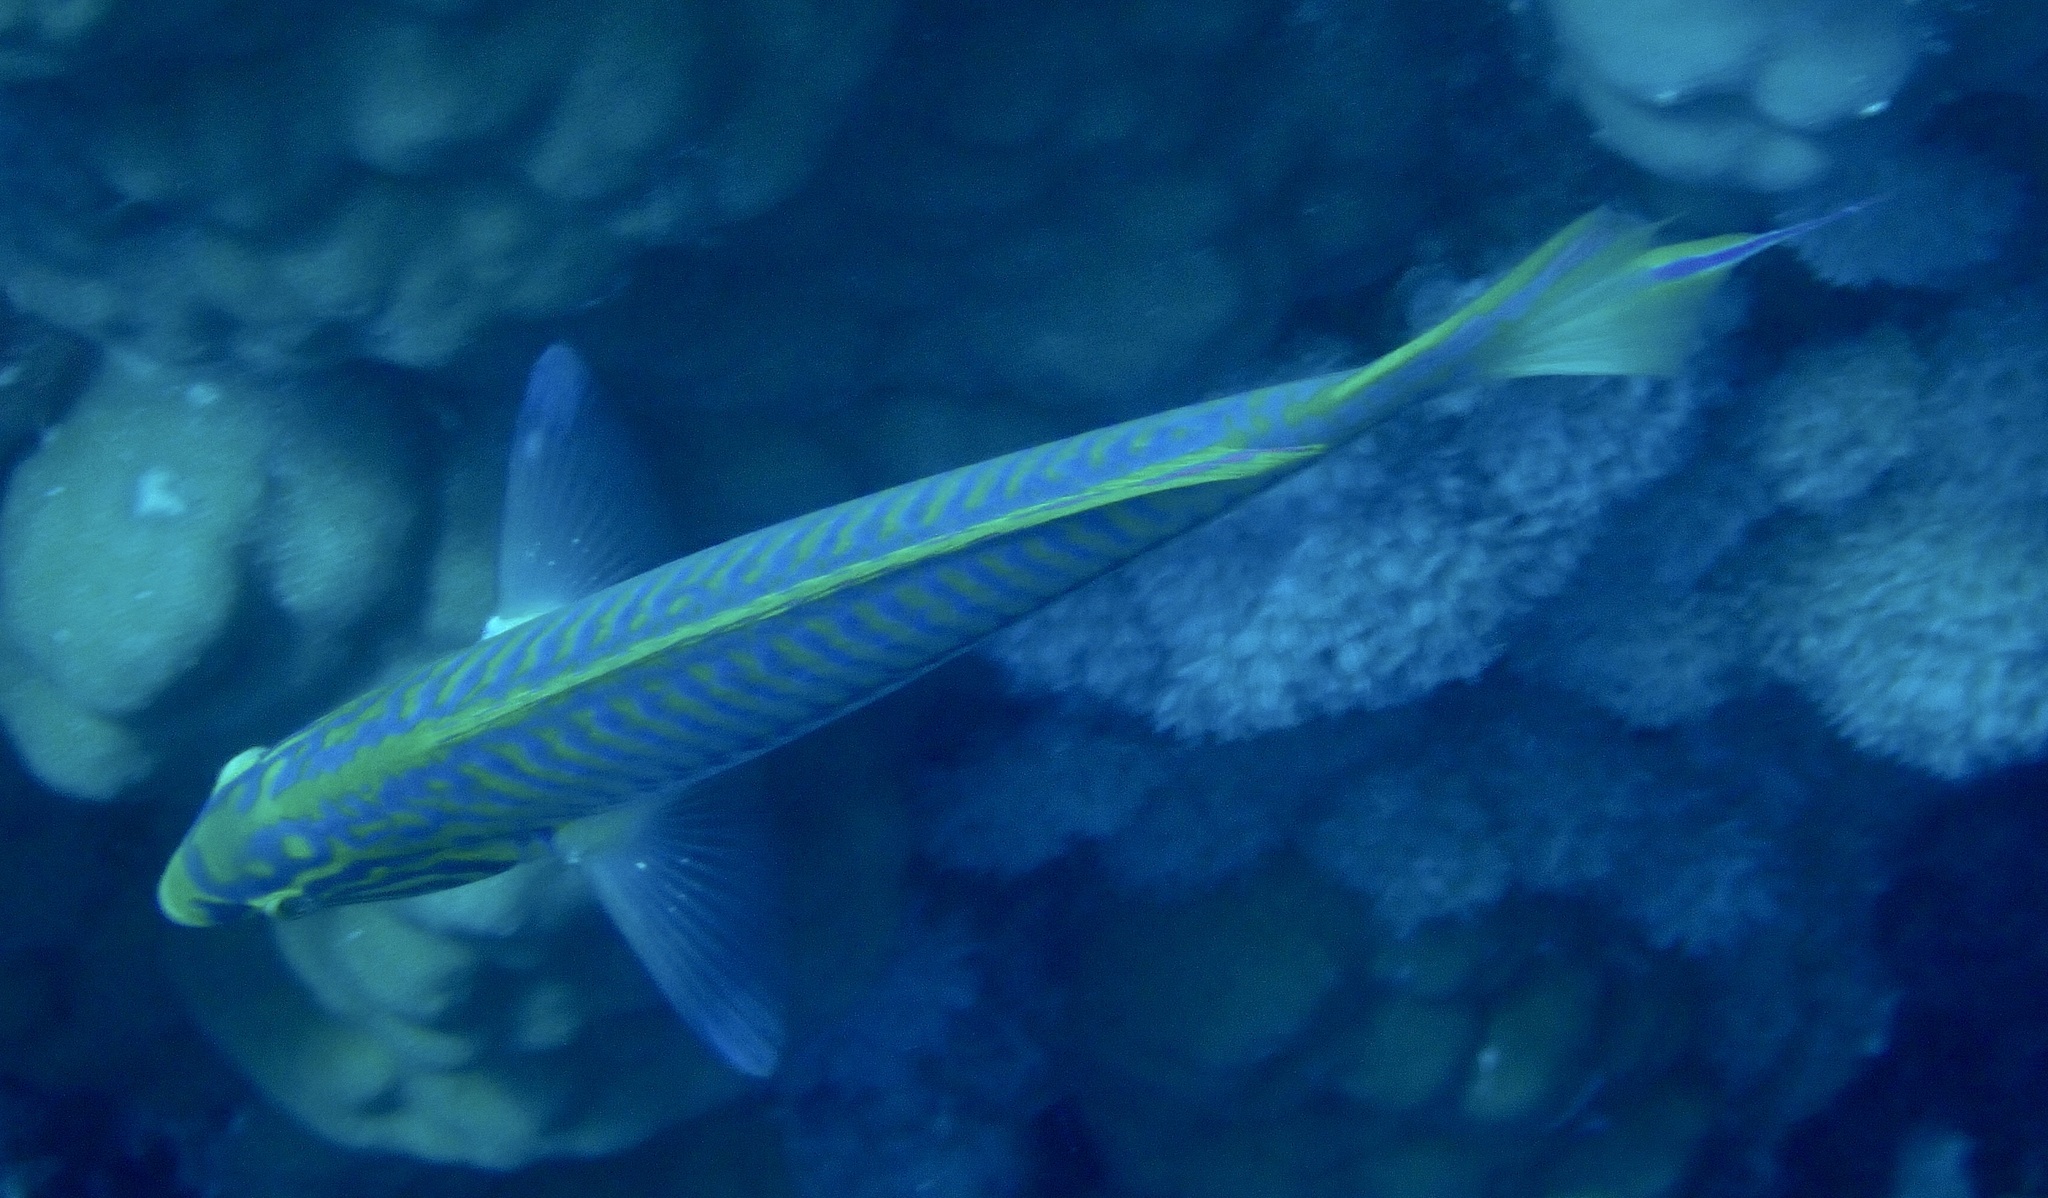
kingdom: Animalia
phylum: Chordata
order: Perciformes
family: Labridae
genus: Thalassoma
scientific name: Thalassoma rueppellii
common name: Klunzinger's wrasse
